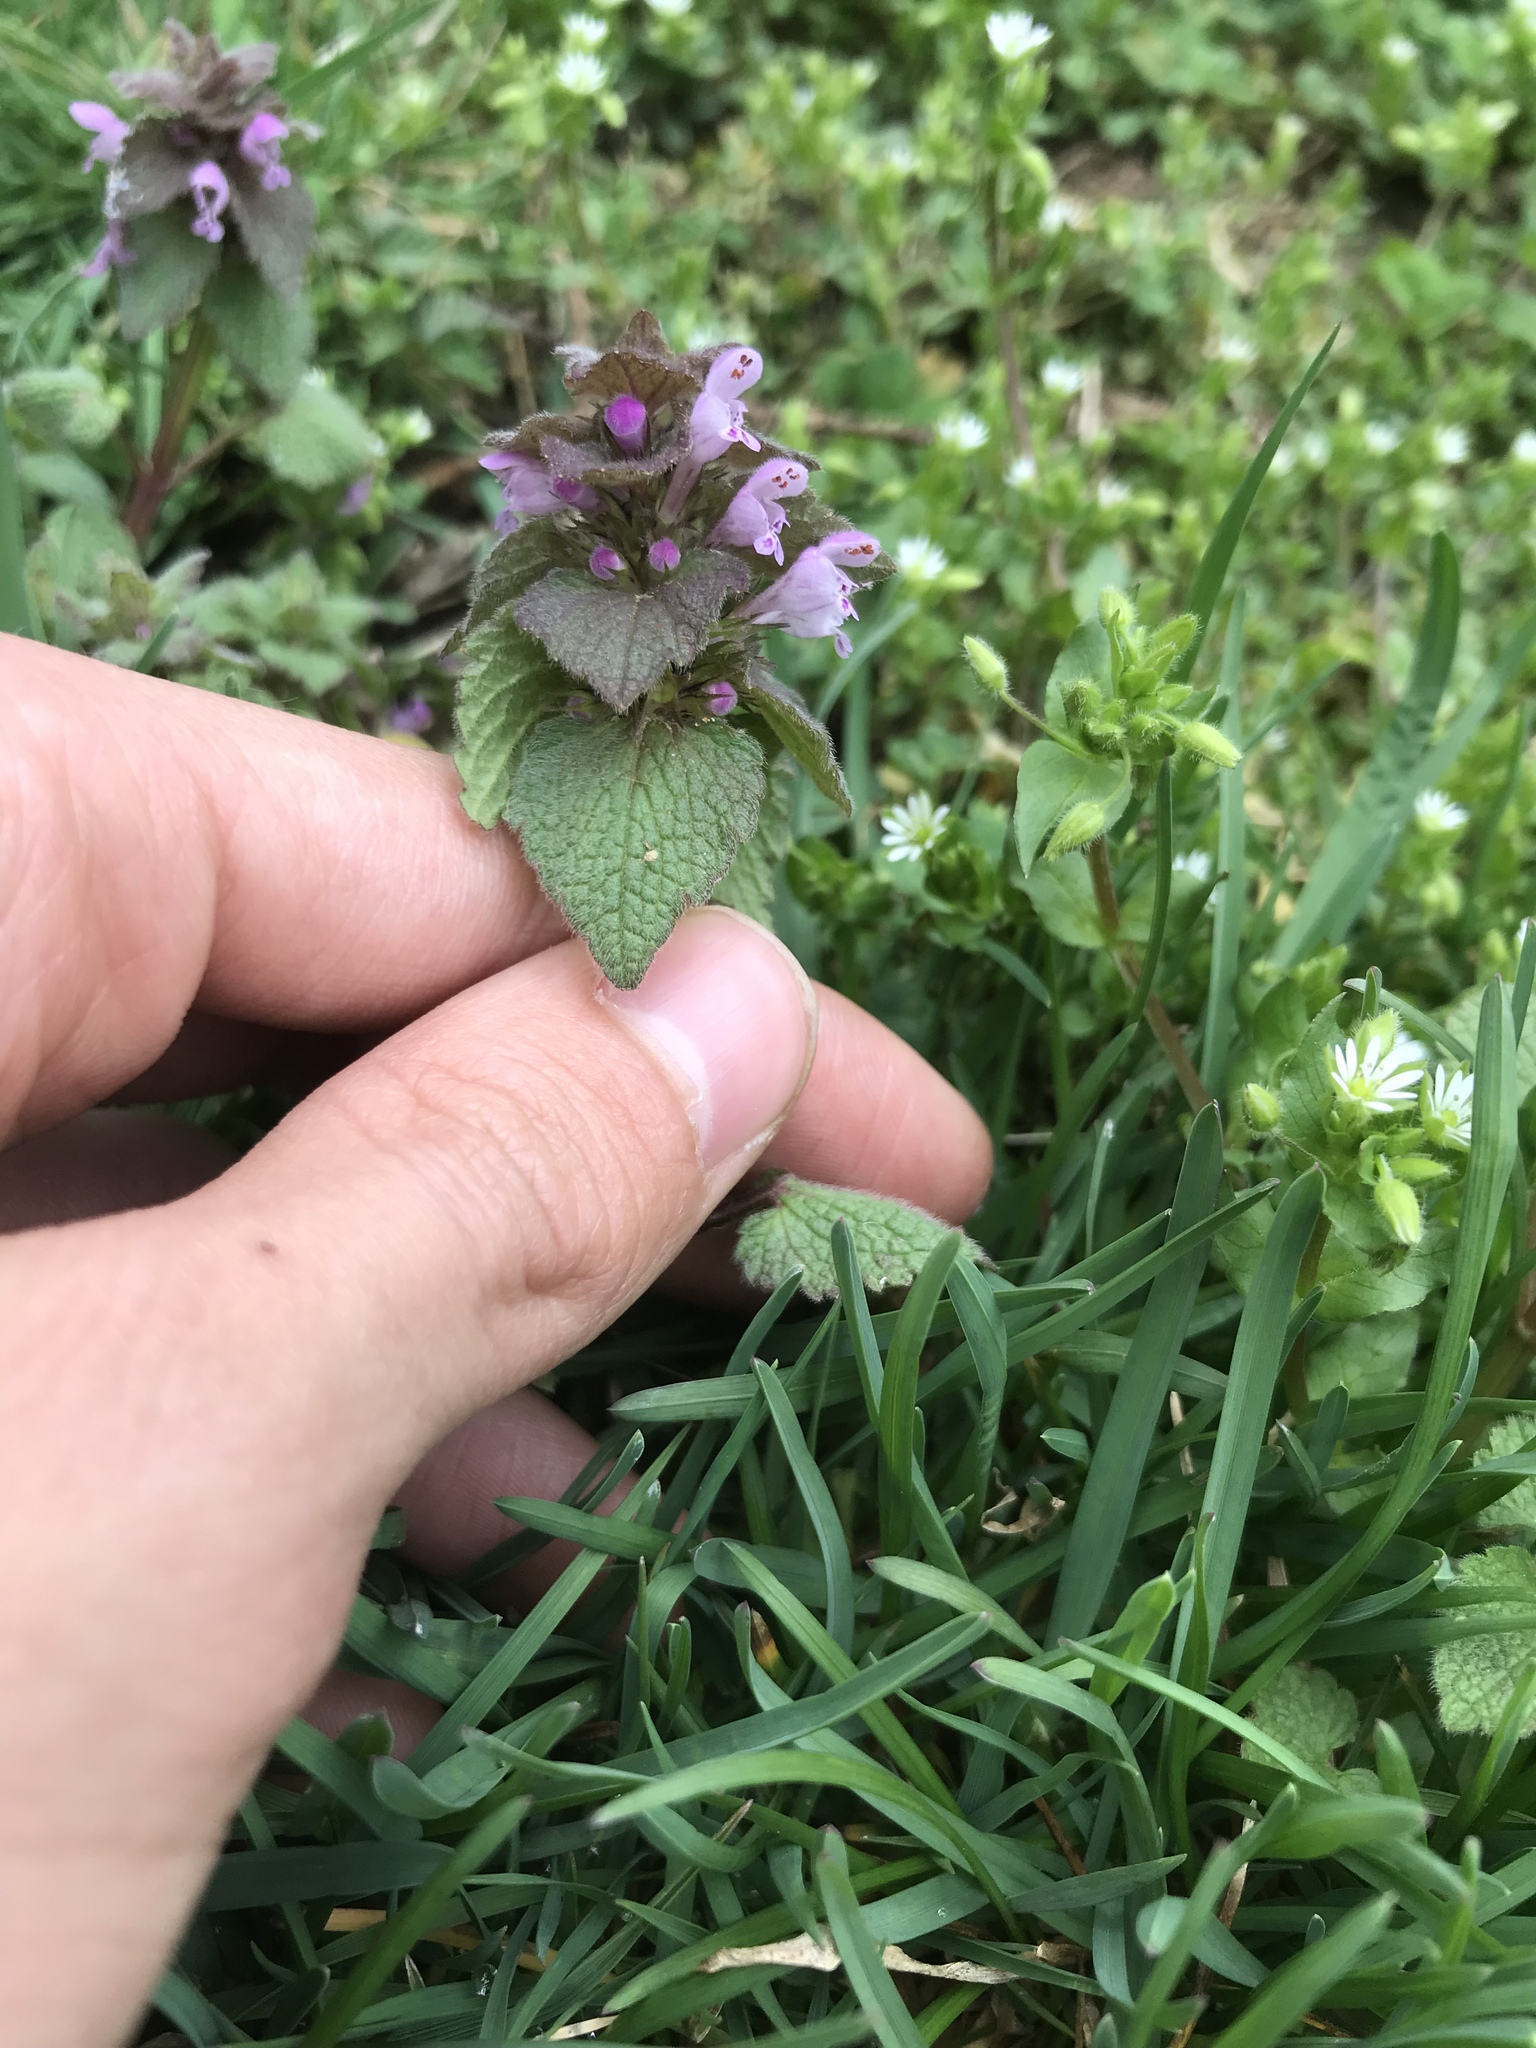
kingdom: Plantae
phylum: Tracheophyta
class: Magnoliopsida
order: Lamiales
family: Lamiaceae
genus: Lamium
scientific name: Lamium purpureum
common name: Red dead-nettle
